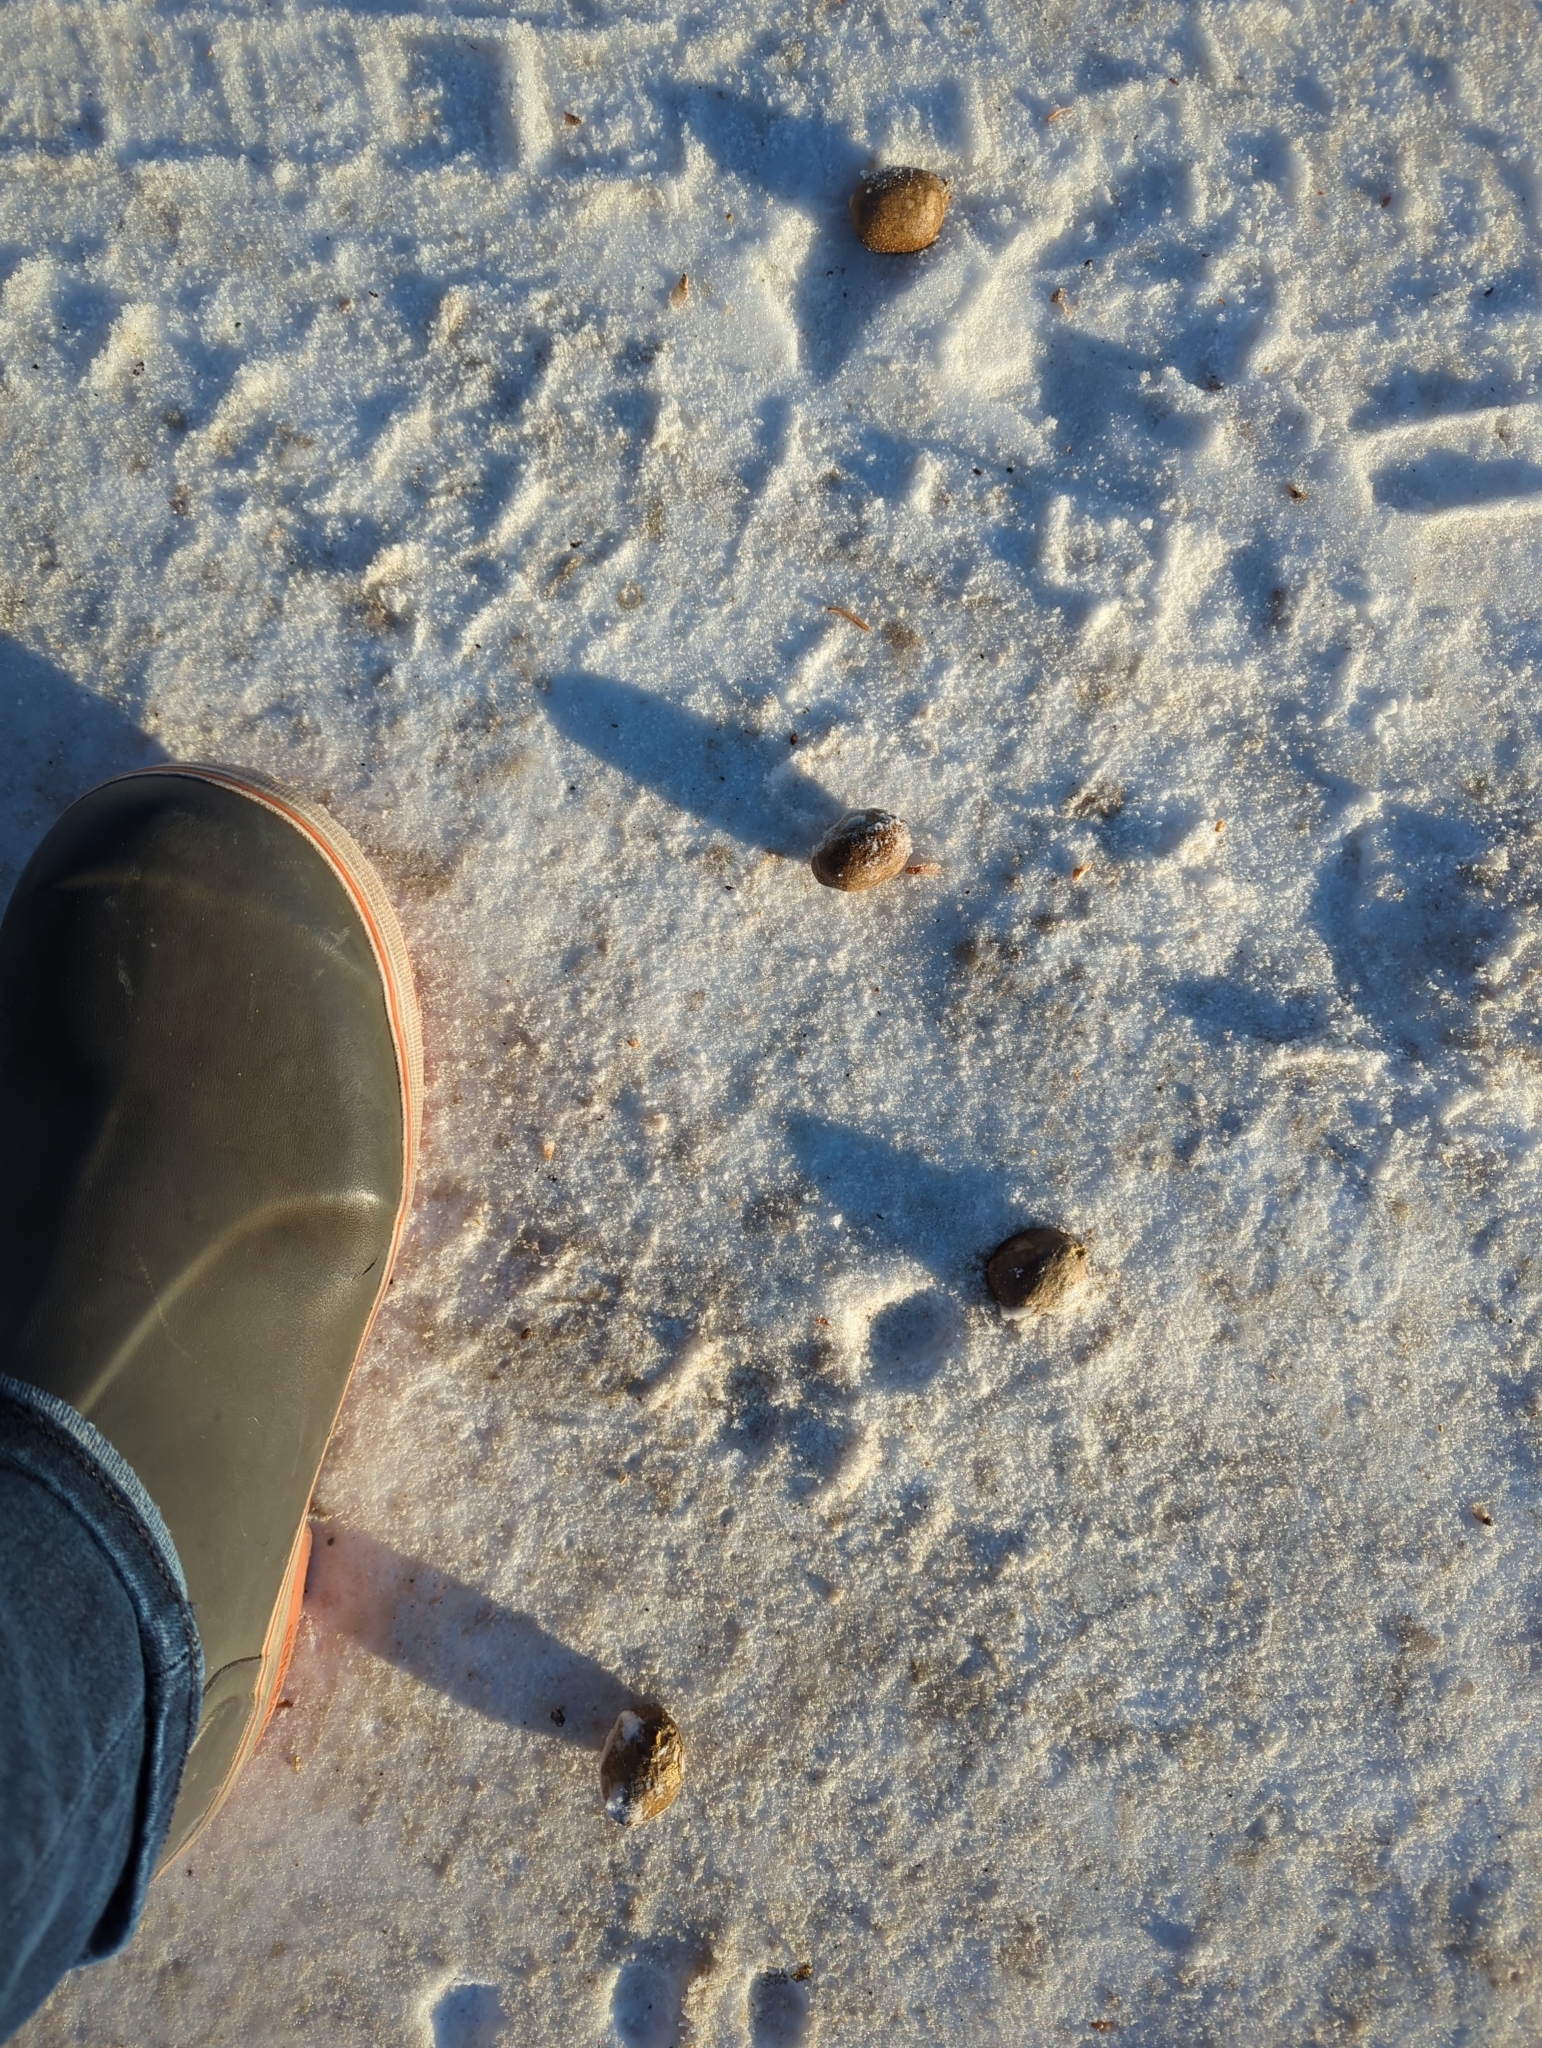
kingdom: Animalia
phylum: Chordata
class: Mammalia
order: Artiodactyla
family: Cervidae
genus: Alces
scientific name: Alces alces
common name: Moose
